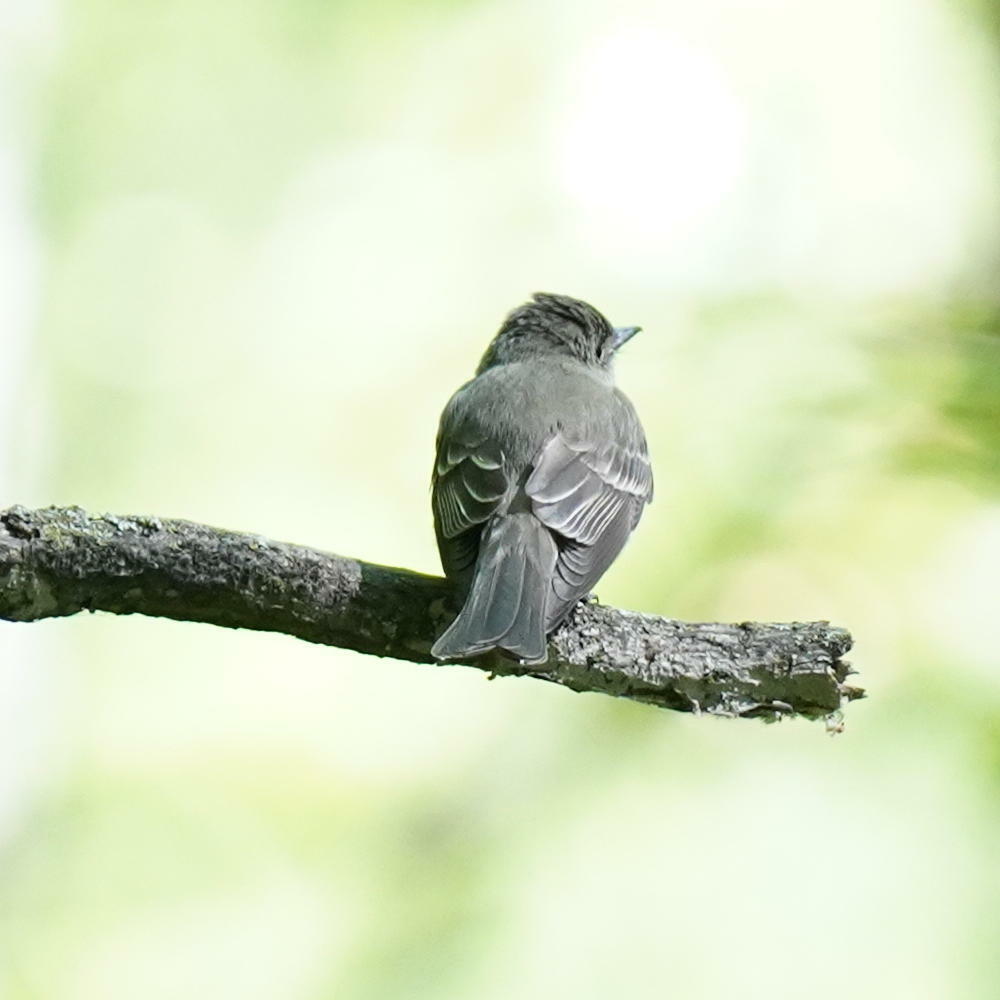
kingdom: Animalia
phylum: Chordata
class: Aves
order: Passeriformes
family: Tyrannidae
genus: Contopus
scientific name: Contopus virens
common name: Eastern wood-pewee
